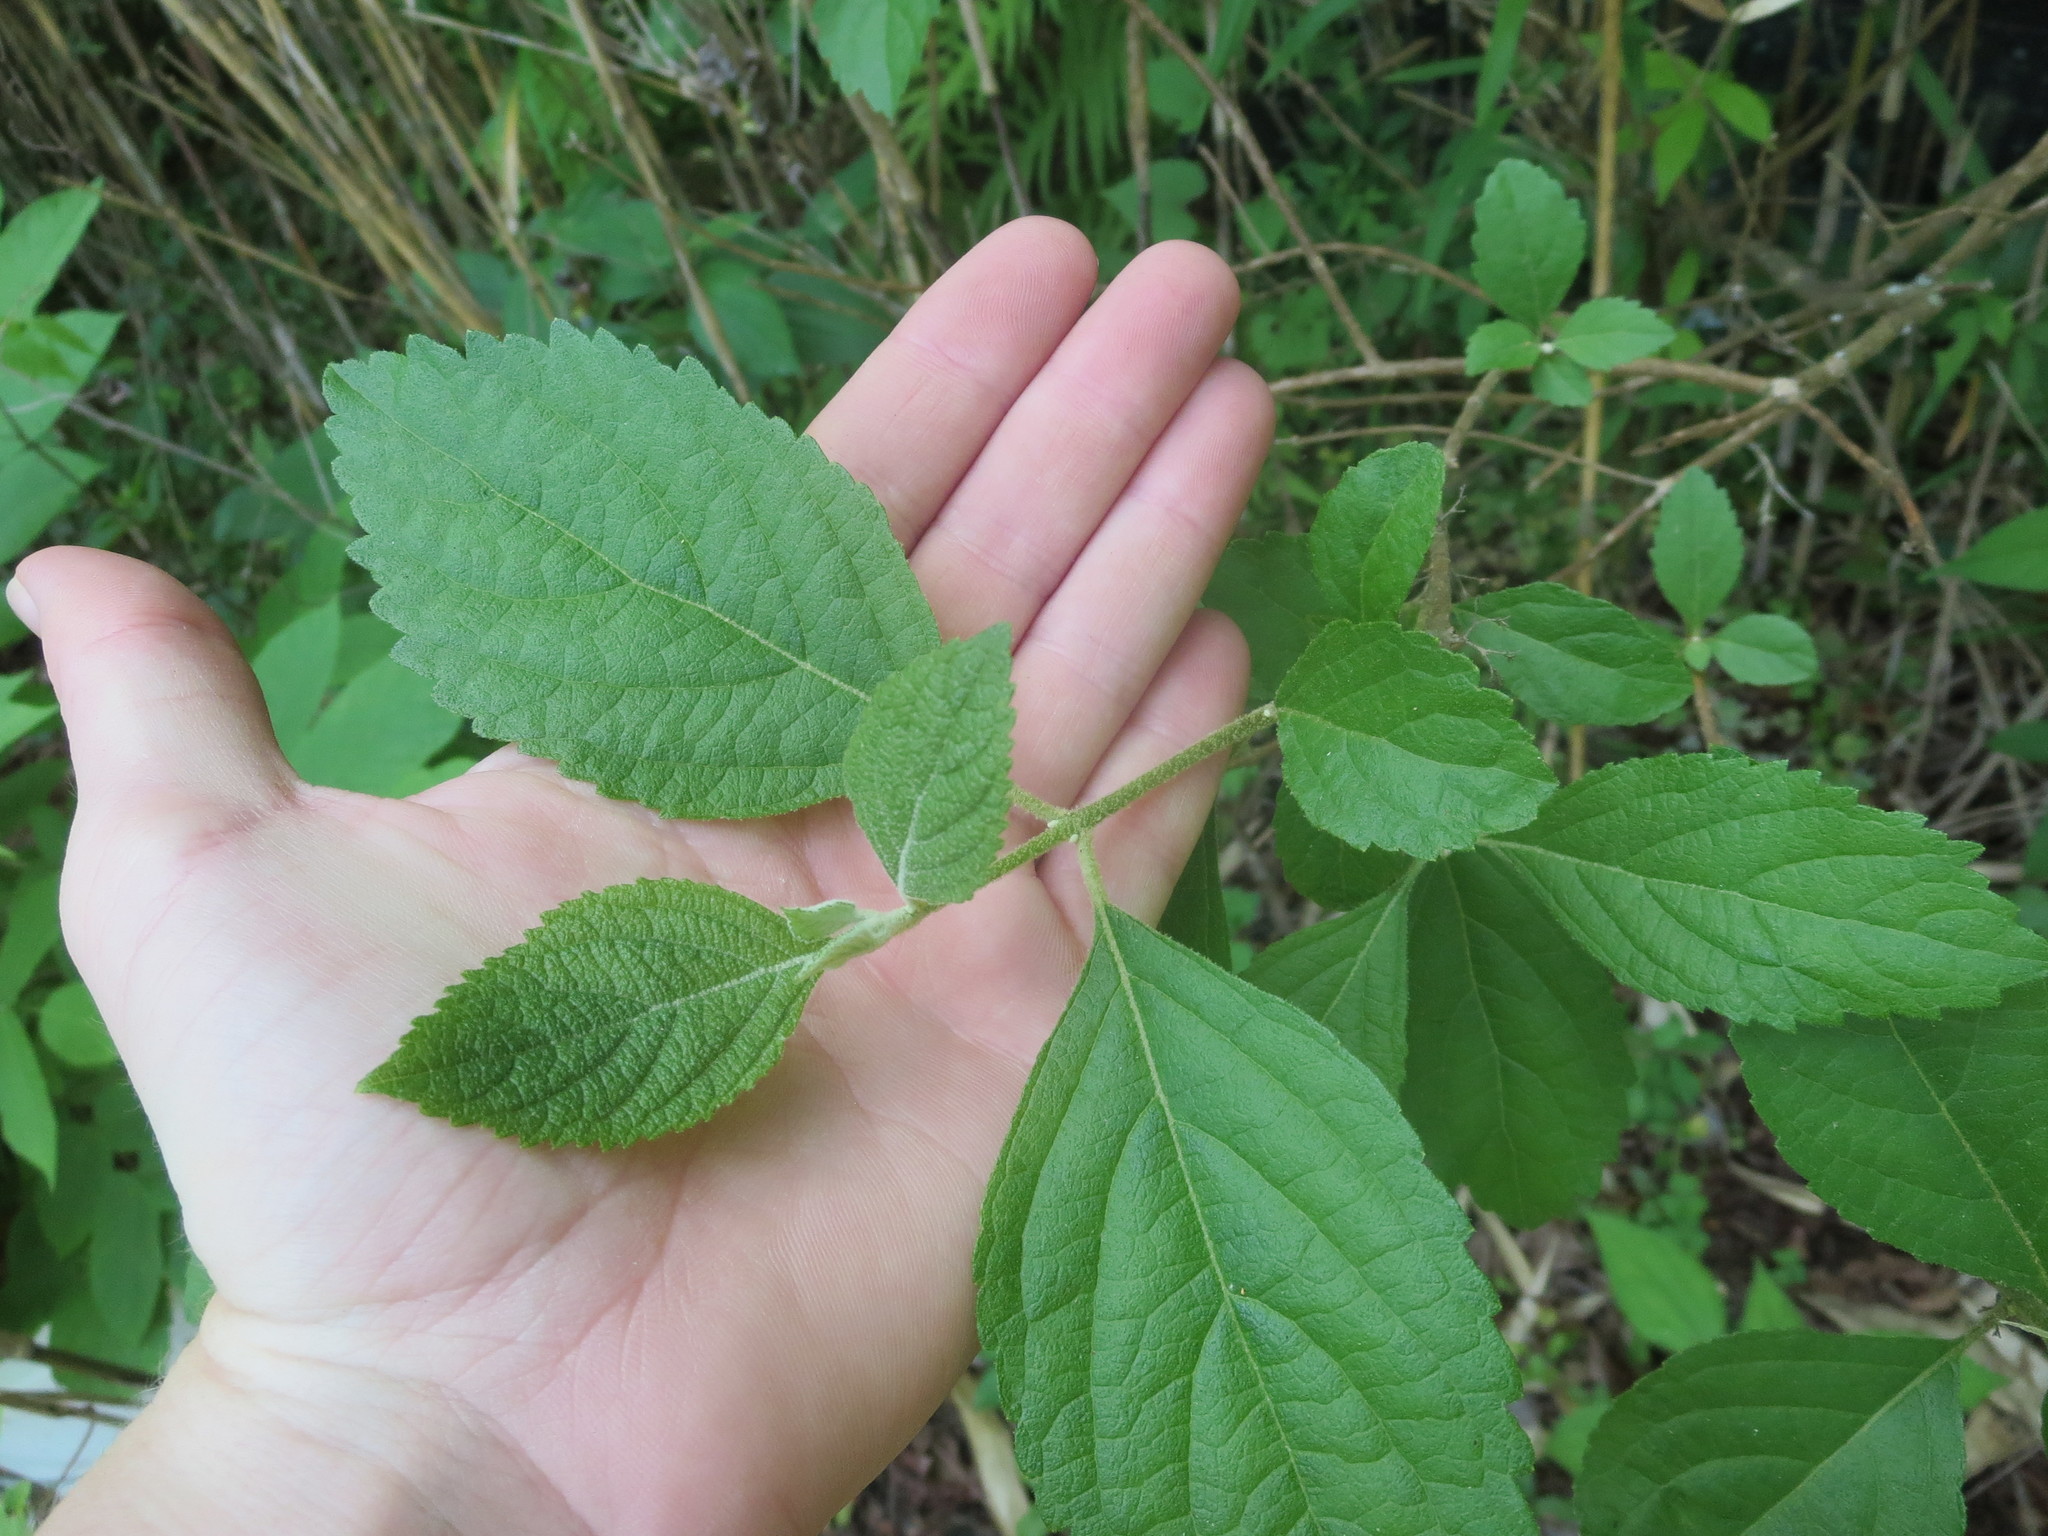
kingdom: Plantae
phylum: Tracheophyta
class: Magnoliopsida
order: Lamiales
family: Lamiaceae
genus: Callicarpa
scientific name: Callicarpa americana
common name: American beautyberry
